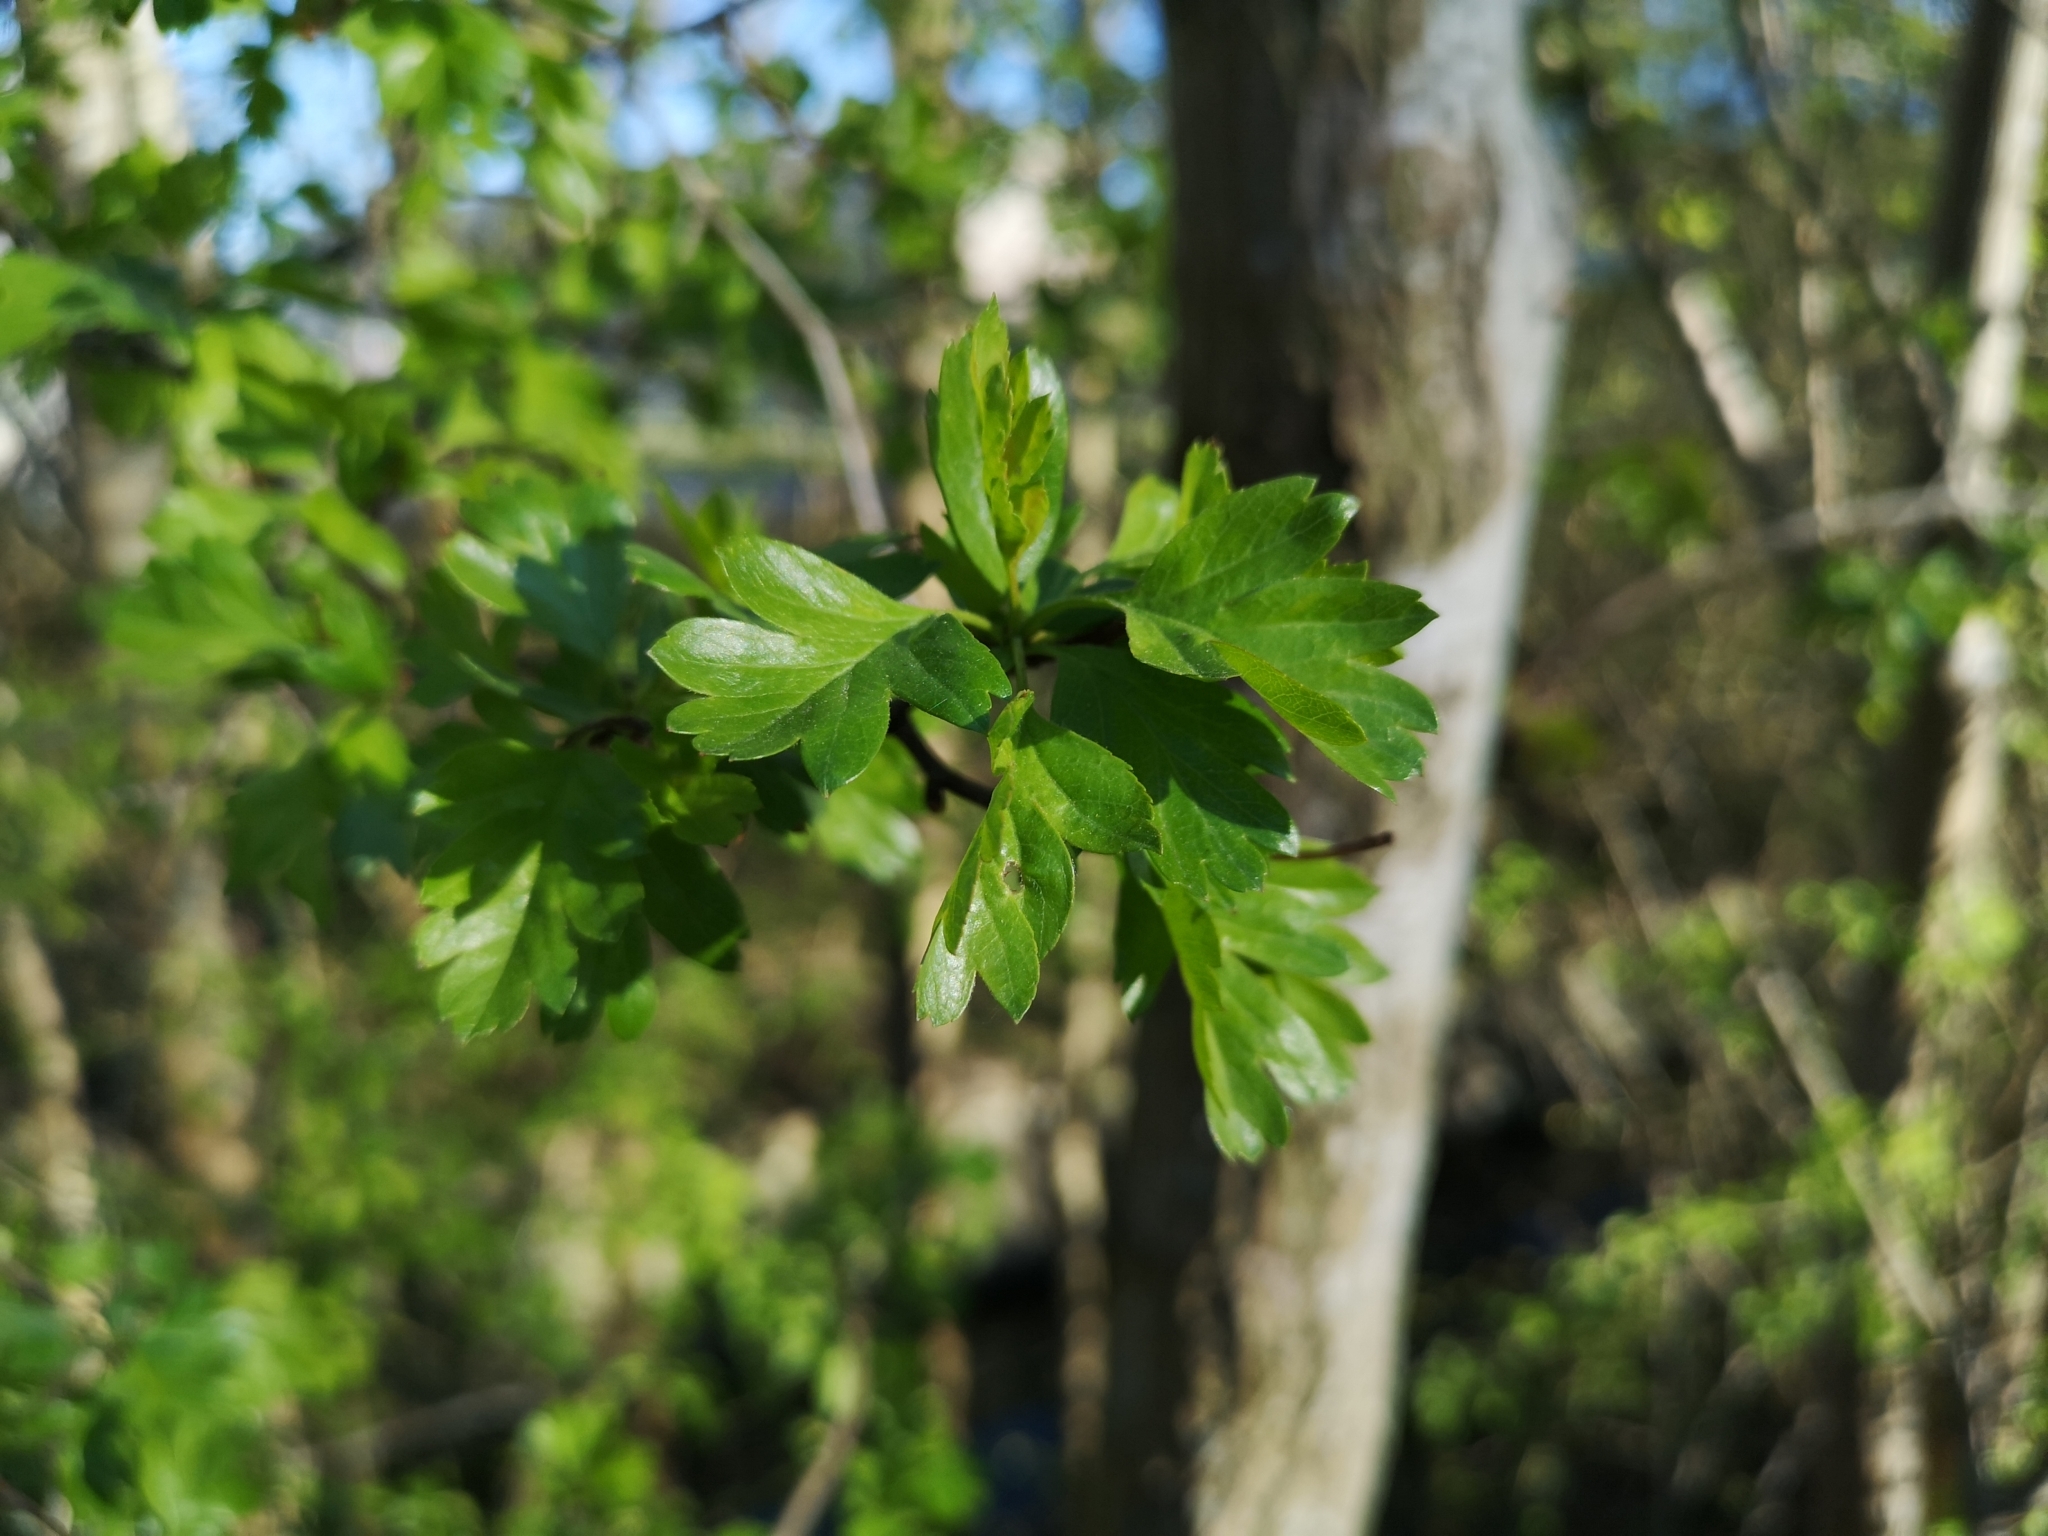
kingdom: Plantae
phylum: Tracheophyta
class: Magnoliopsida
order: Rosales
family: Rosaceae
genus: Crataegus
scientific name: Crataegus monogyna
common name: Hawthorn
